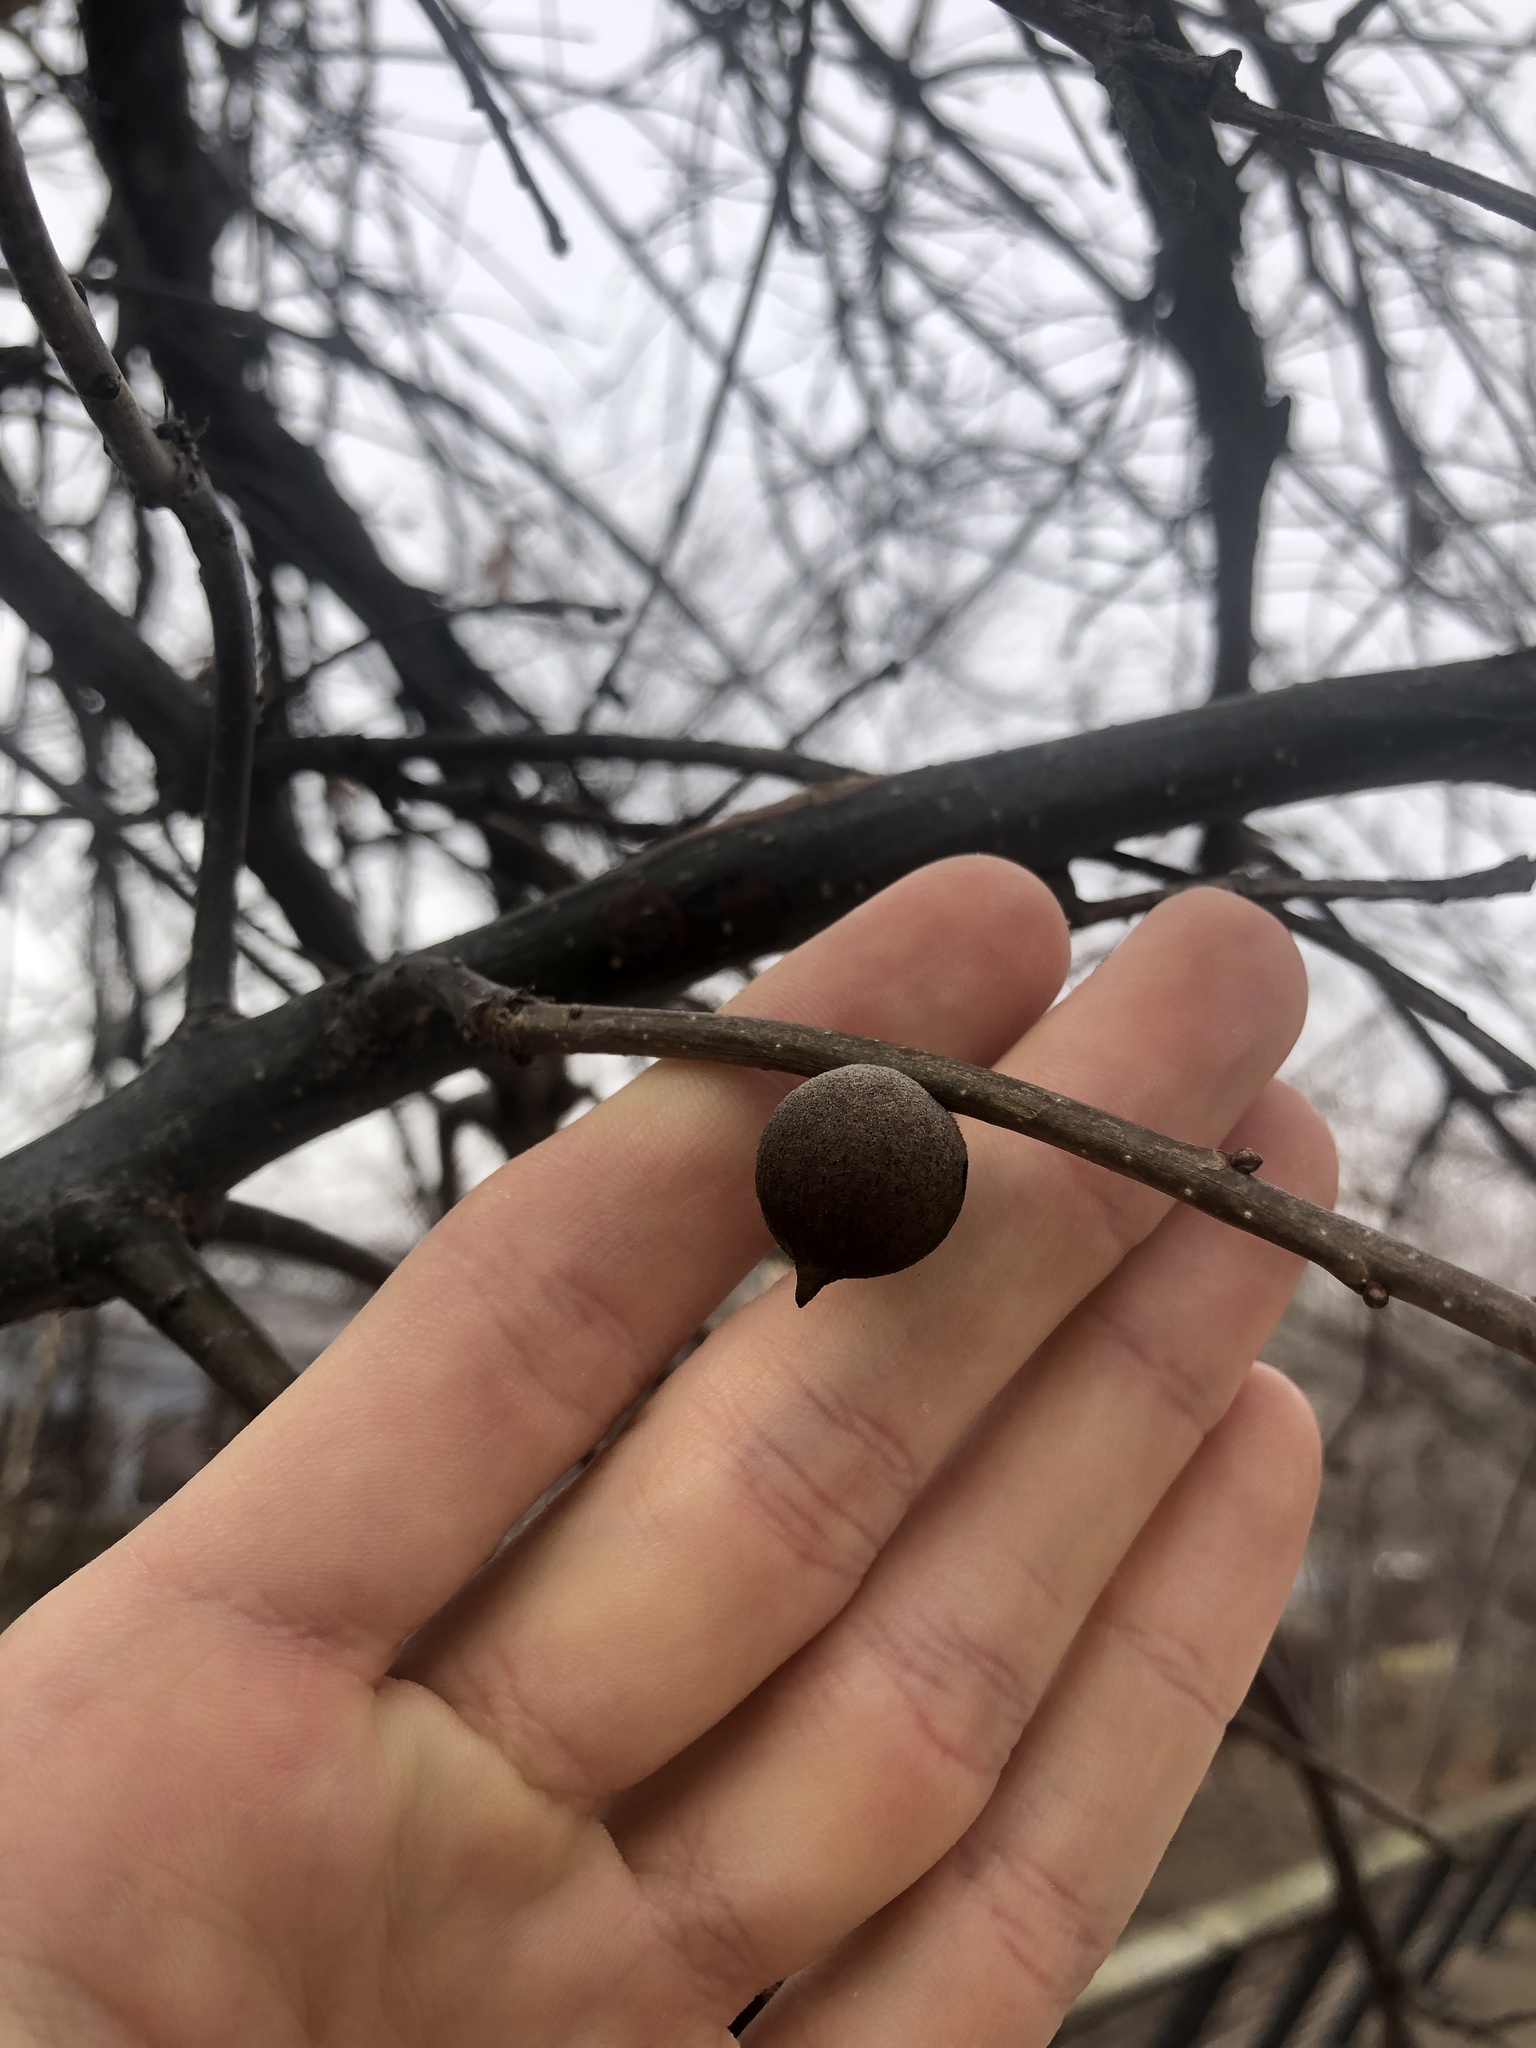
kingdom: Animalia
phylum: Arthropoda
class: Insecta
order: Hymenoptera
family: Cynipidae
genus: Disholcaspis
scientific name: Disholcaspis
